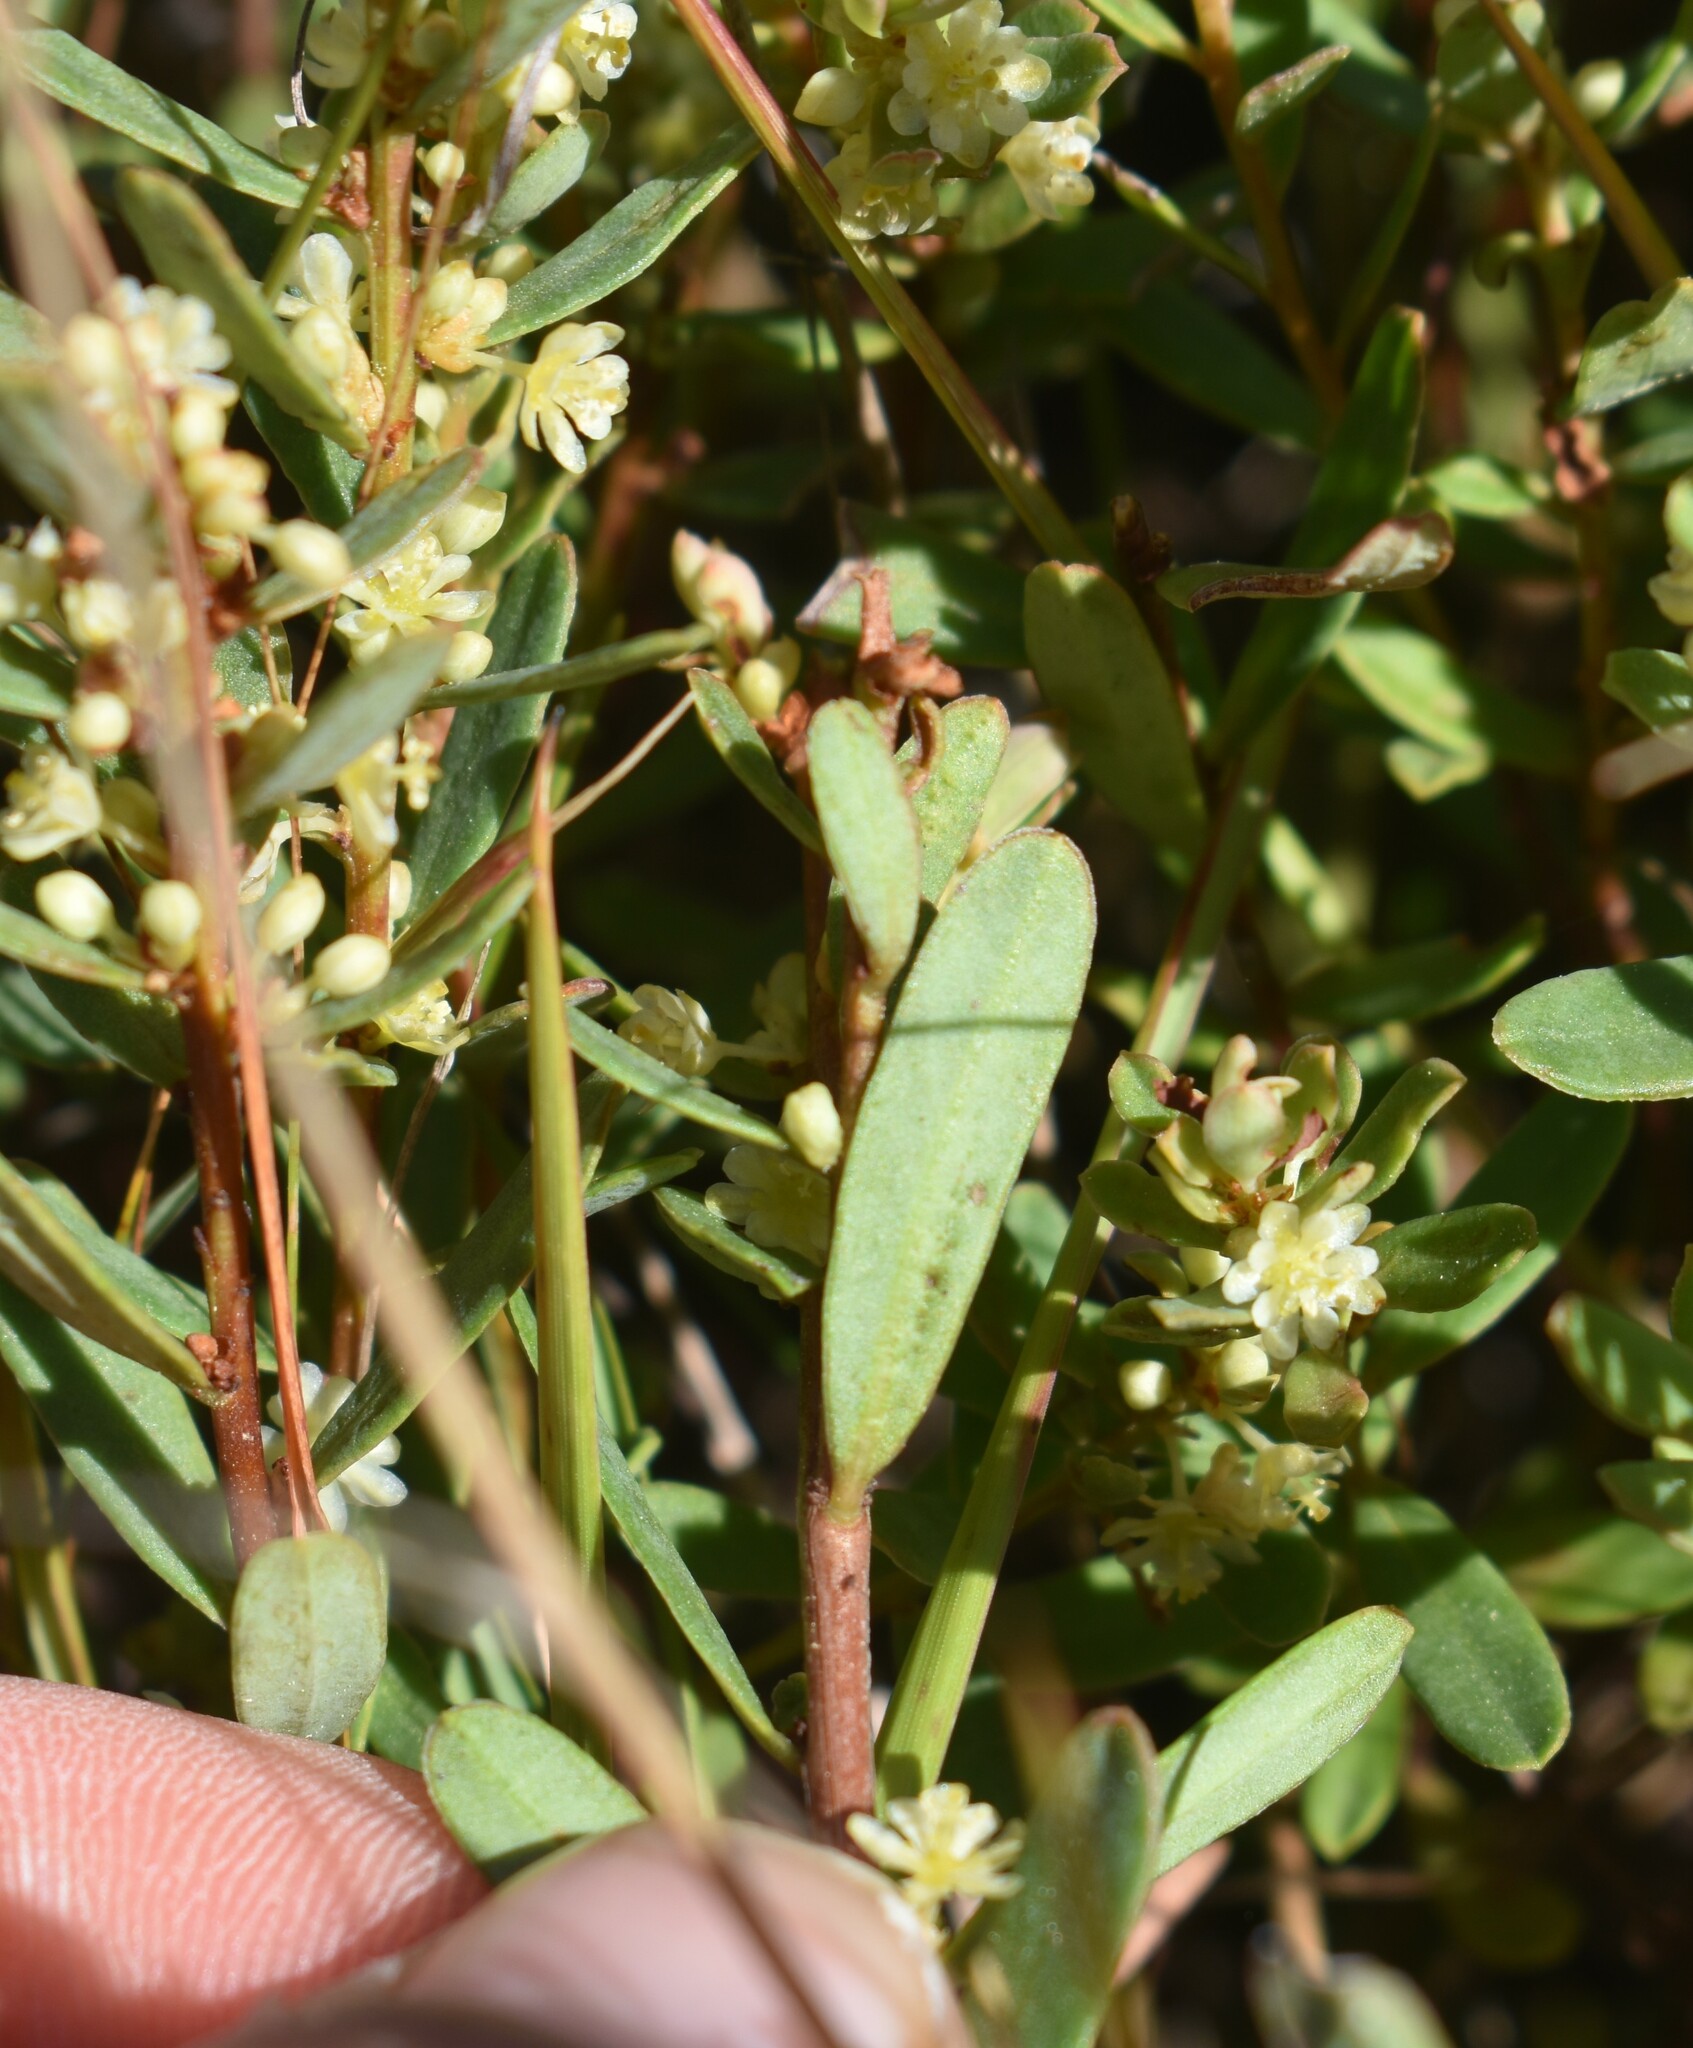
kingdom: Plantae
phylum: Tracheophyta
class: Magnoliopsida
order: Malpighiales
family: Peraceae
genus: Clutia
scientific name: Clutia laxa
